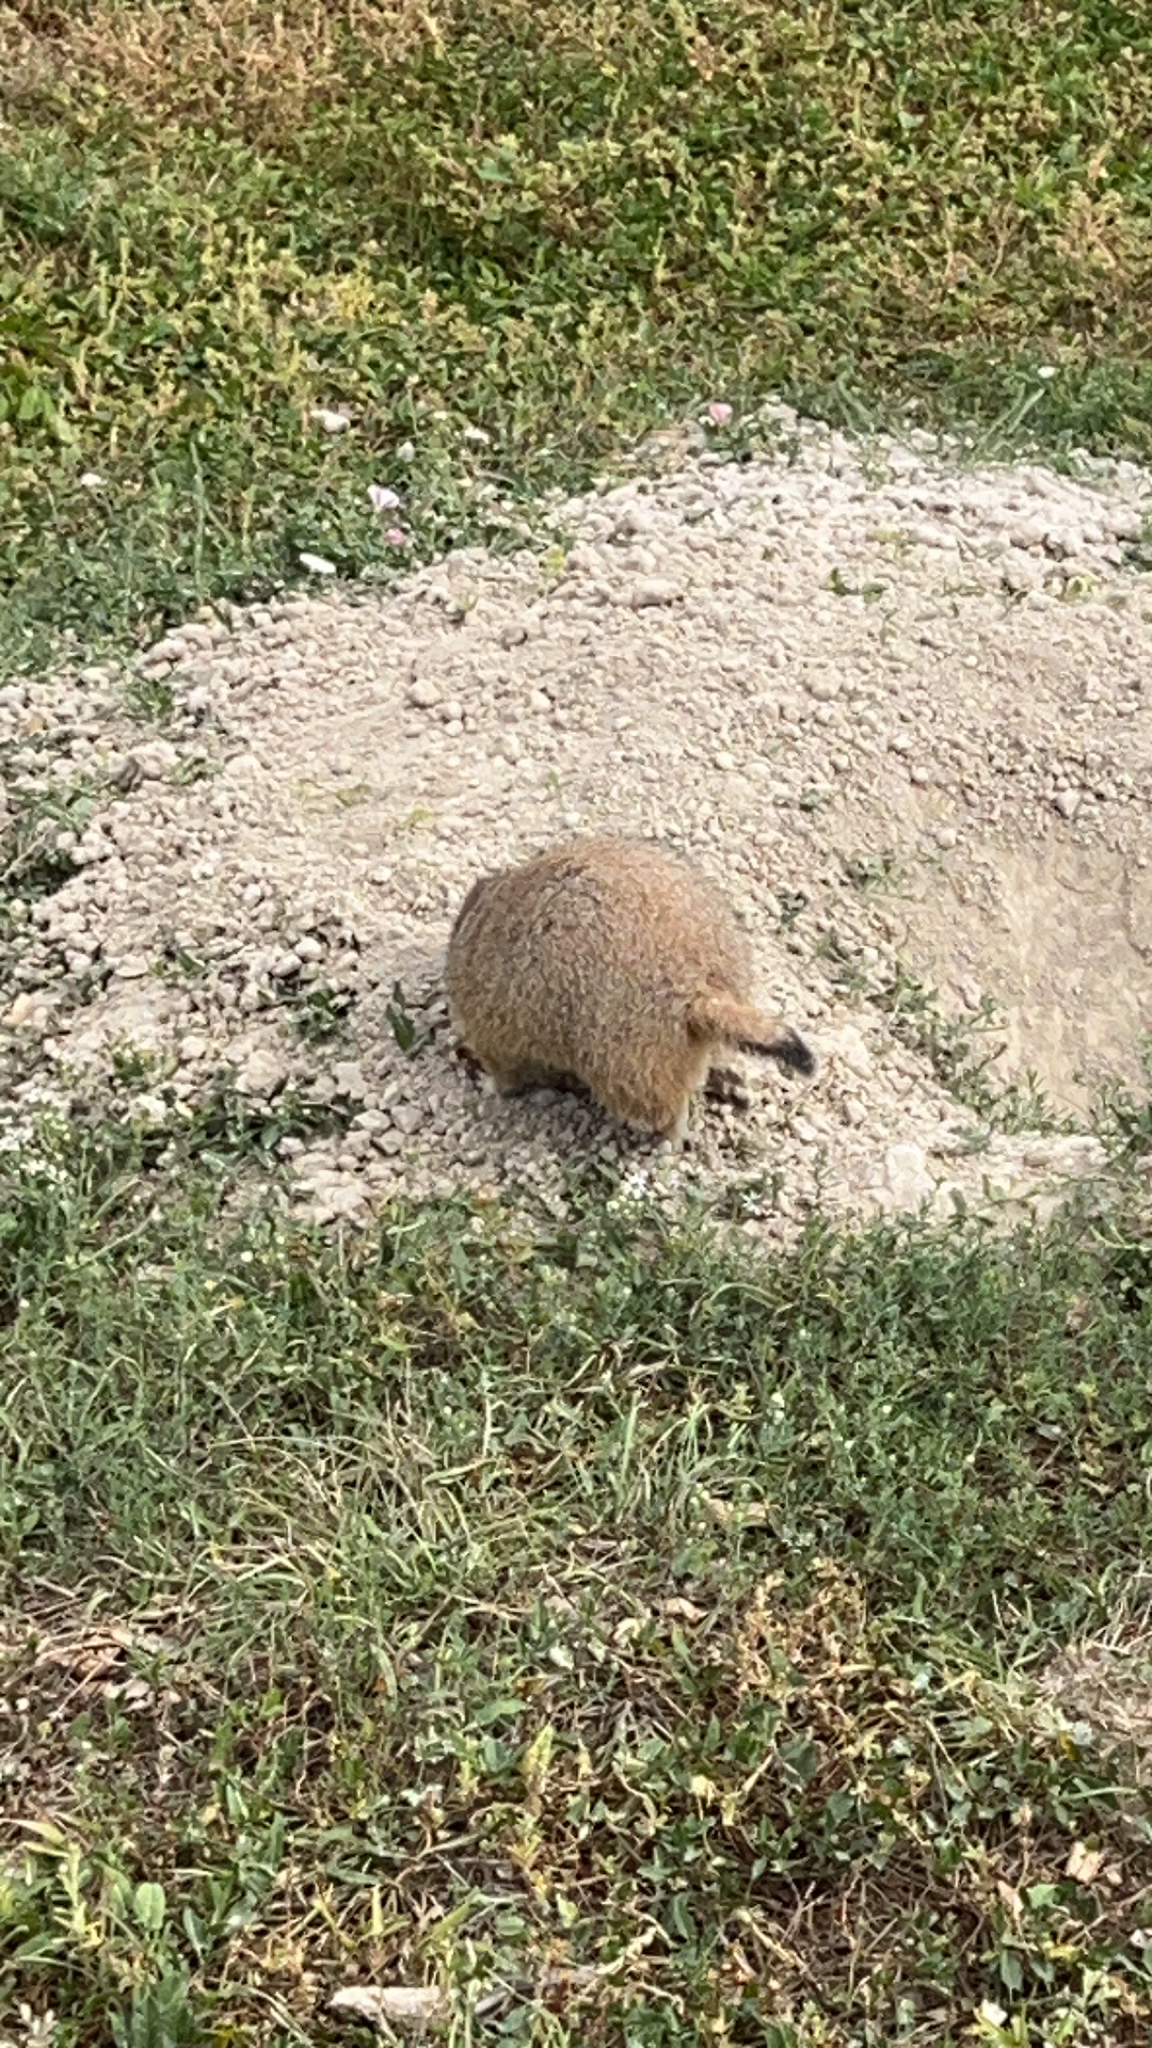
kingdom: Animalia
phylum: Chordata
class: Mammalia
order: Rodentia
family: Sciuridae
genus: Cynomys
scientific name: Cynomys ludovicianus
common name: Black-tailed prairie dog
